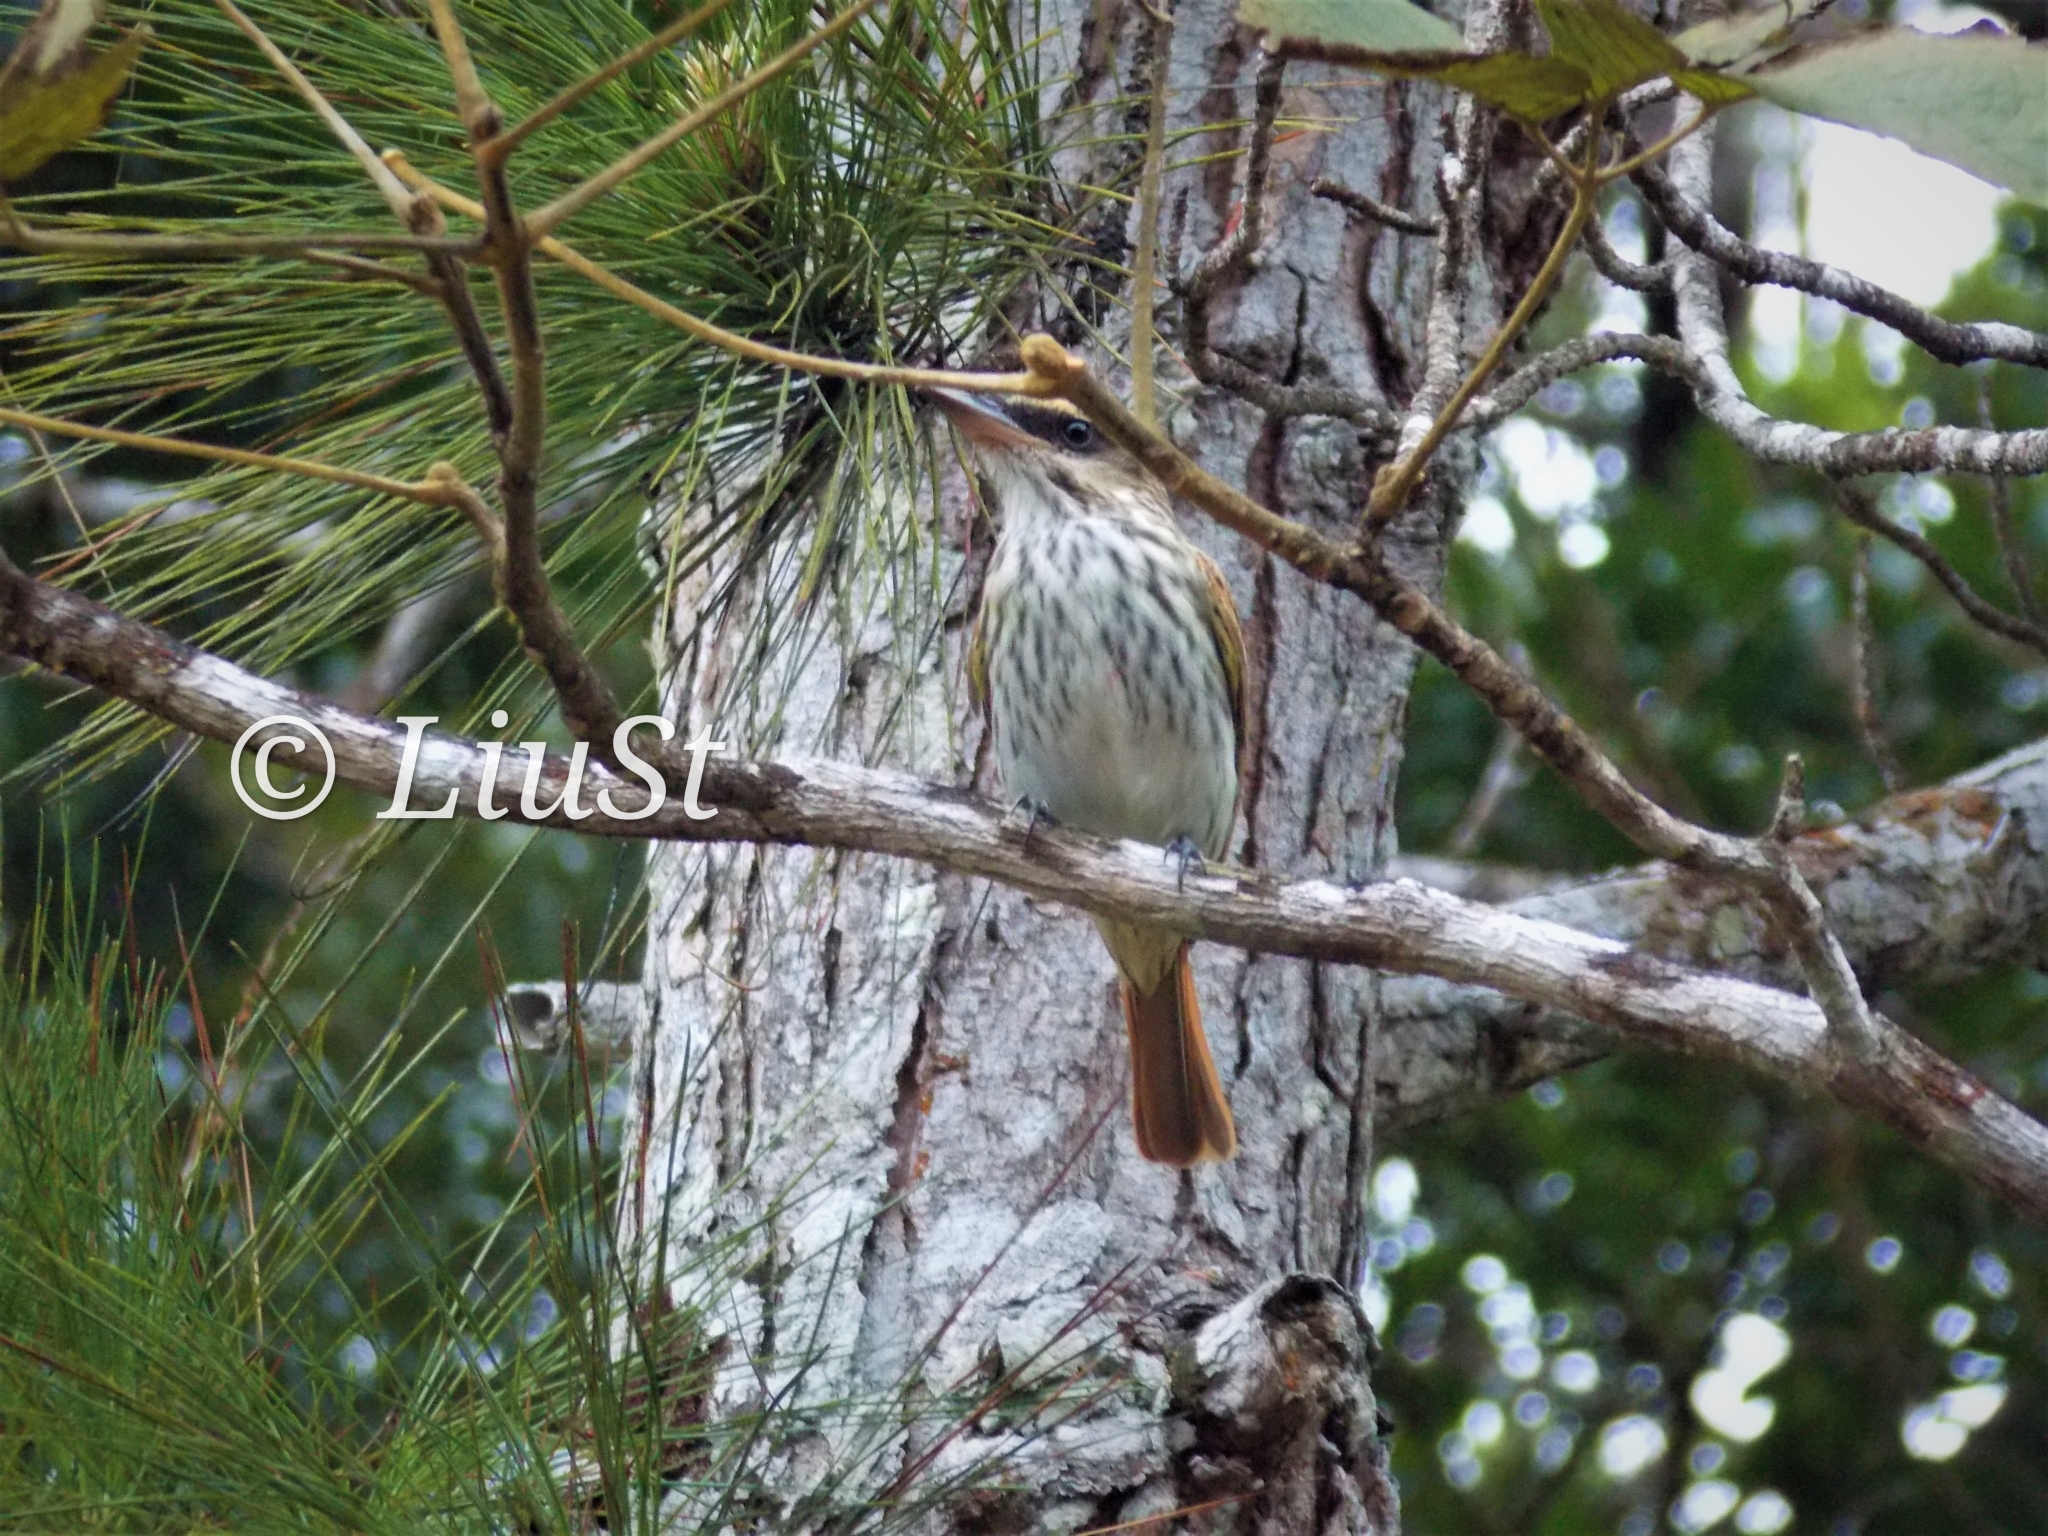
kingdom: Animalia
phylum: Chordata
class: Aves
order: Passeriformes
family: Tyrannidae
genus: Myiodynastes
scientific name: Myiodynastes maculatus
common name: Streaked flycatcher
